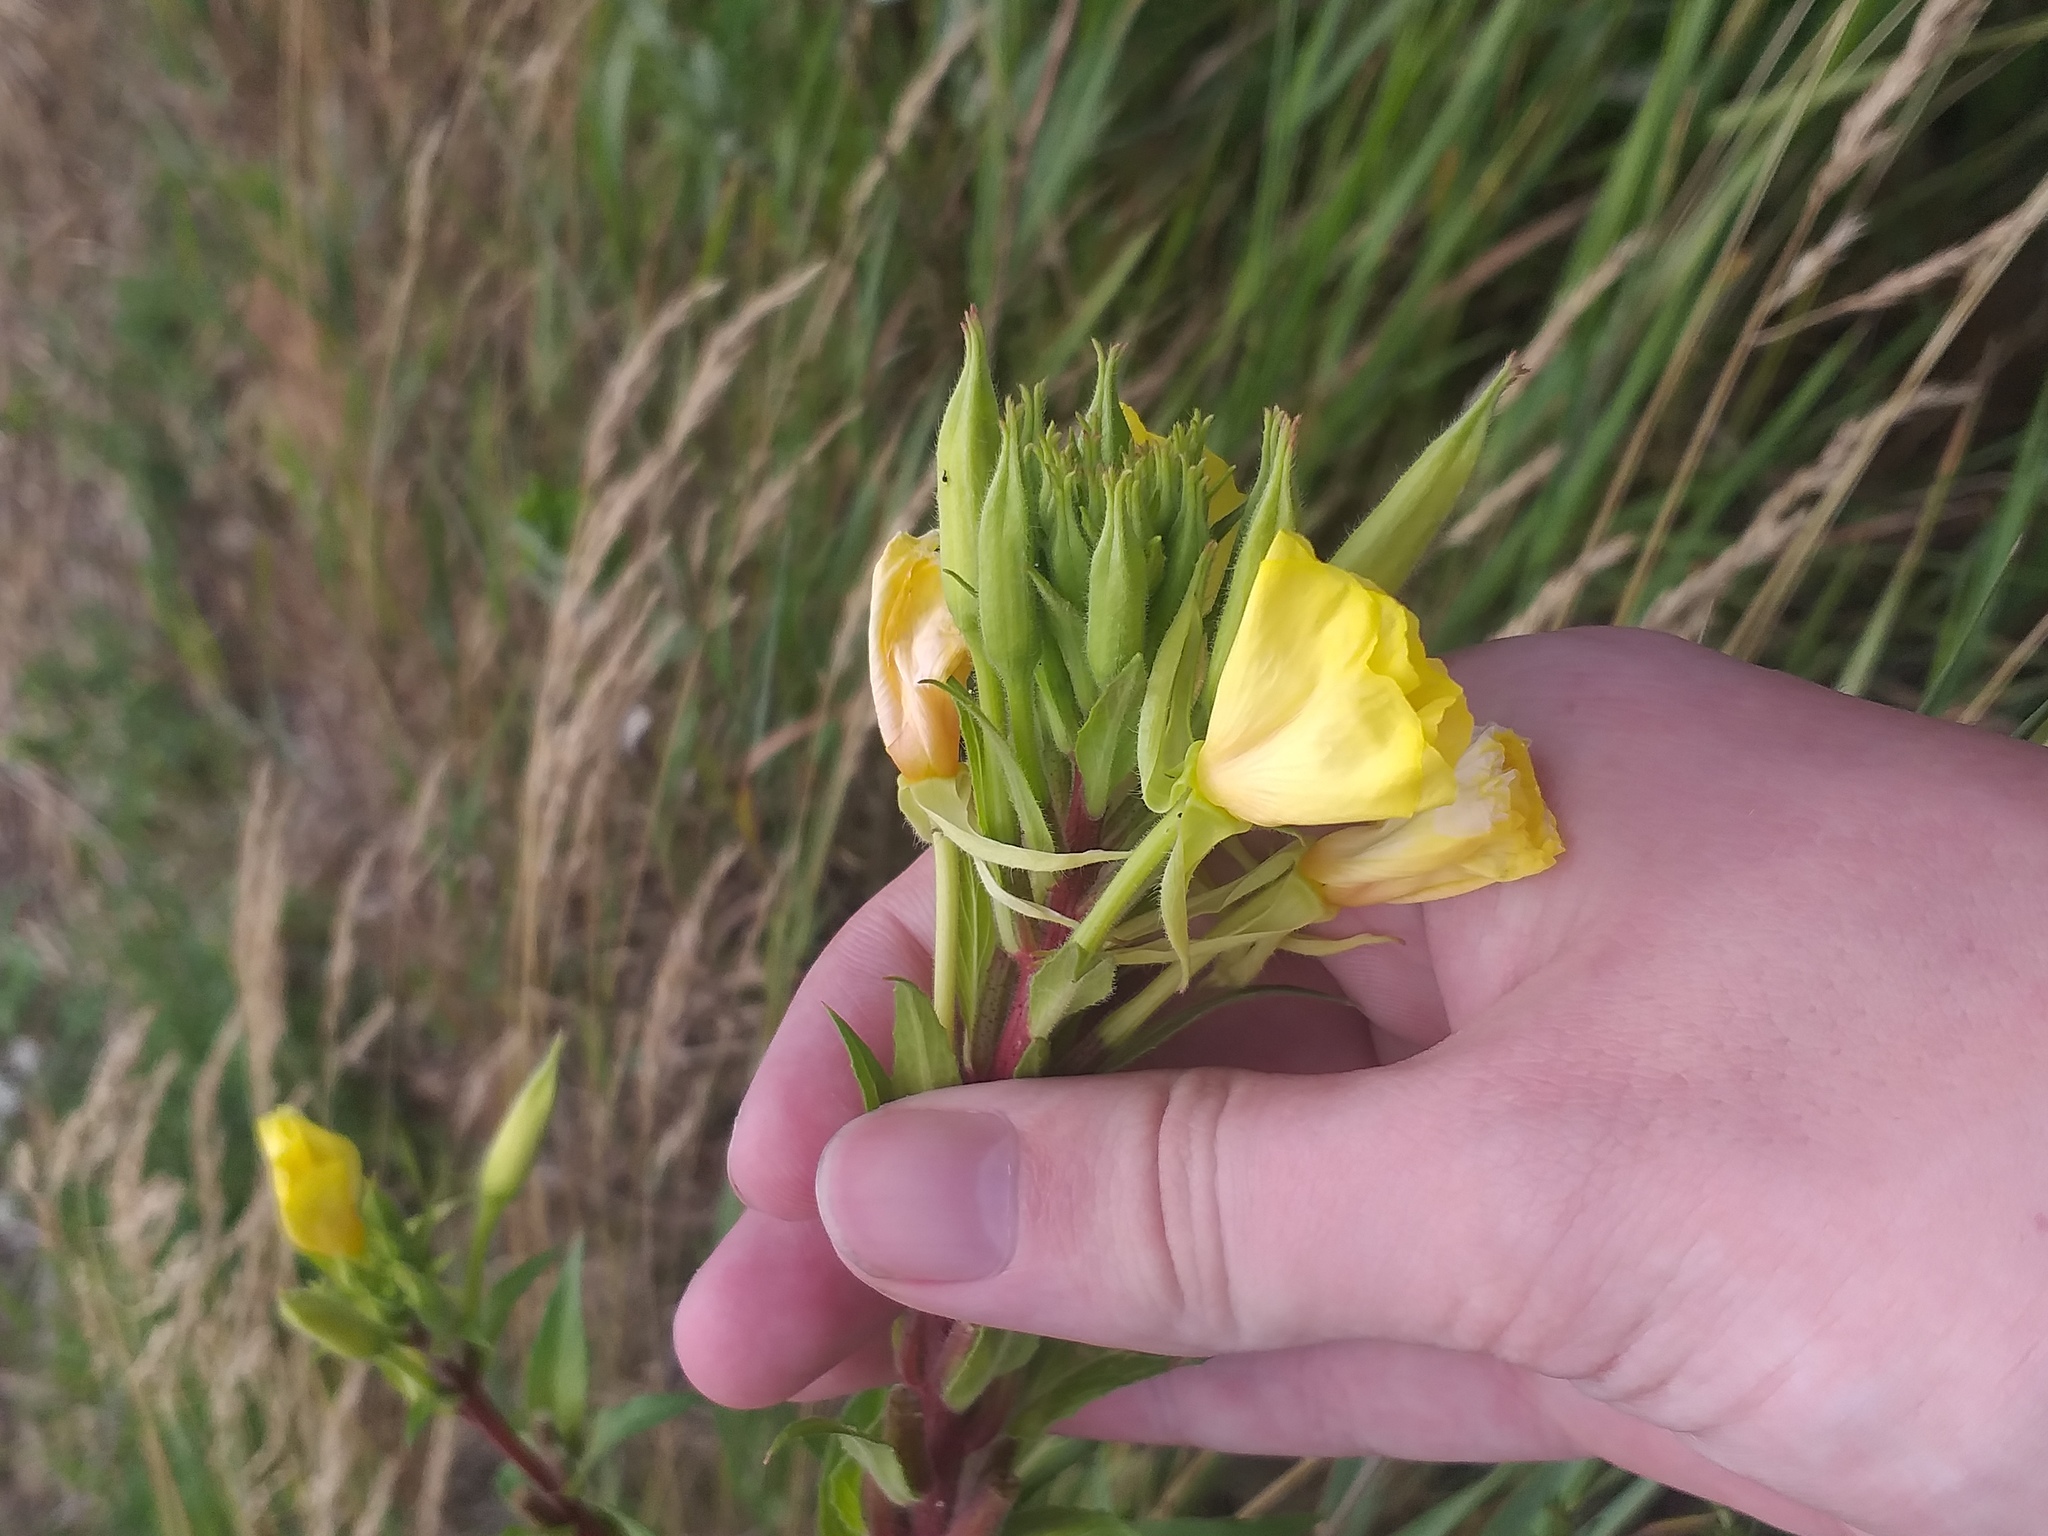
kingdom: Plantae
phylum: Tracheophyta
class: Magnoliopsida
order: Myrtales
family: Onagraceae
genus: Oenothera
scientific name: Oenothera rubricaulis
